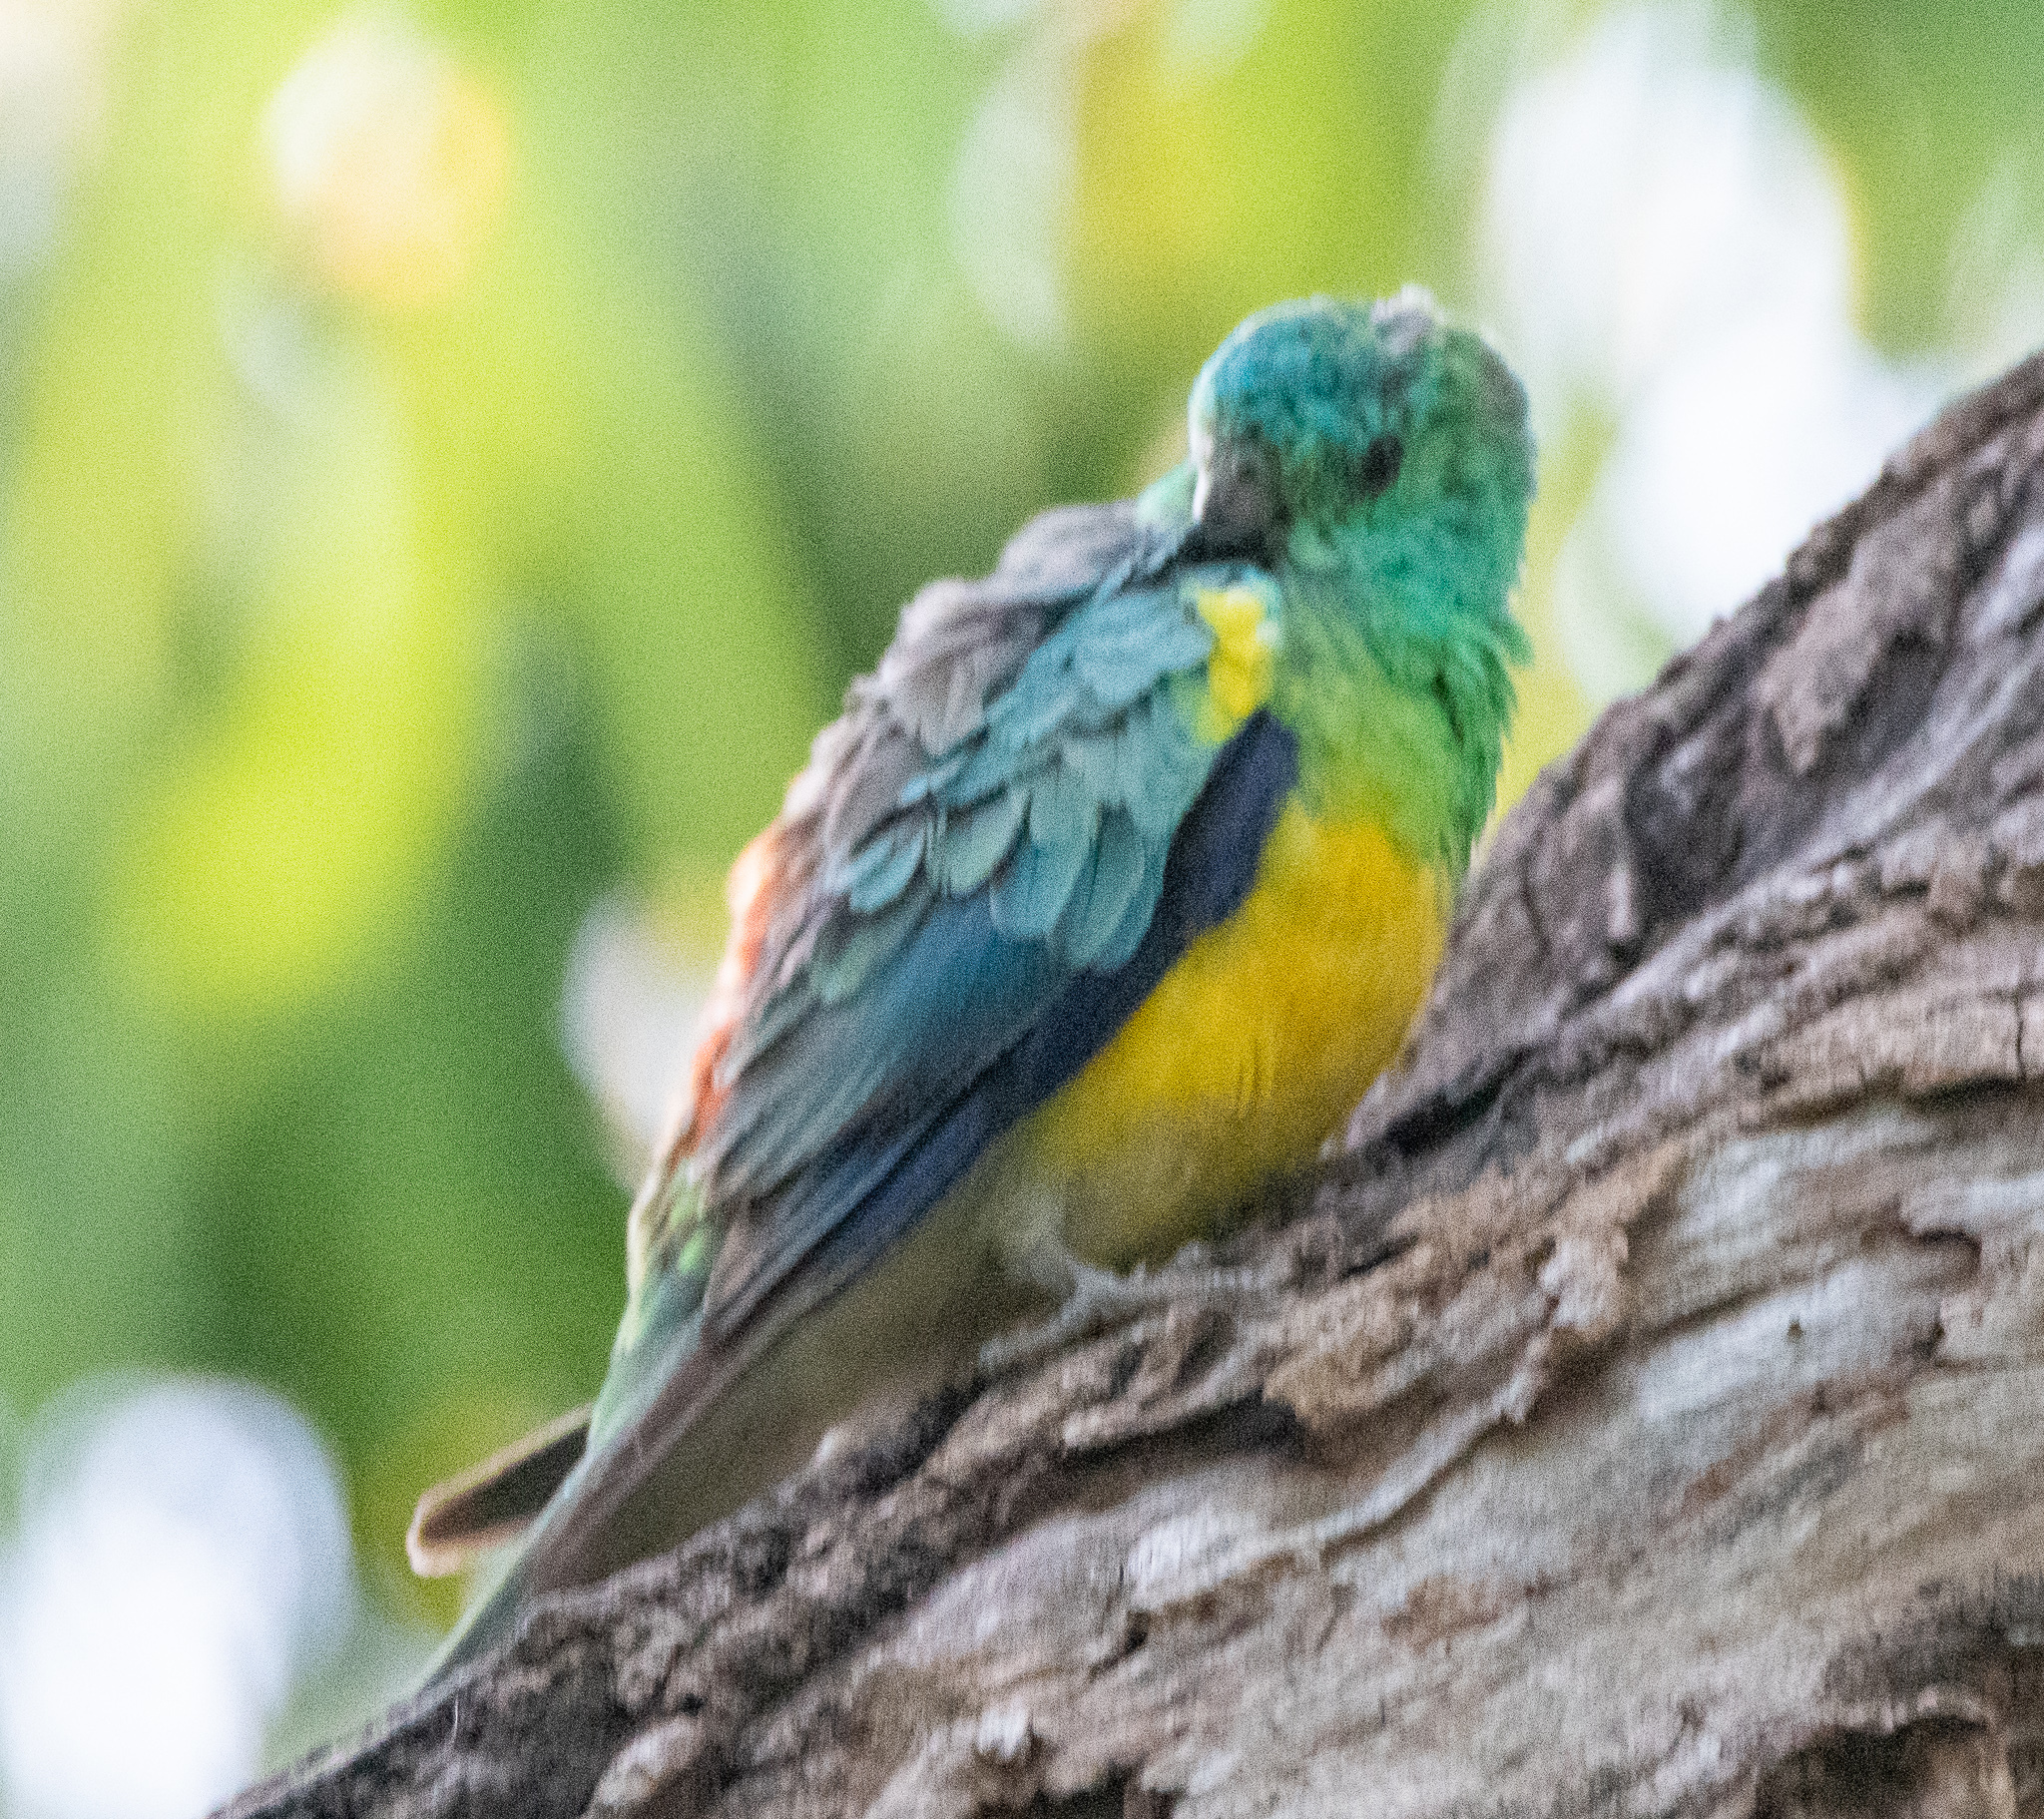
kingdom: Animalia
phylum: Chordata
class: Aves
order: Psittaciformes
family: Psittacidae
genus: Psephotus
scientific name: Psephotus haematonotus
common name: Red-rumped parrot
